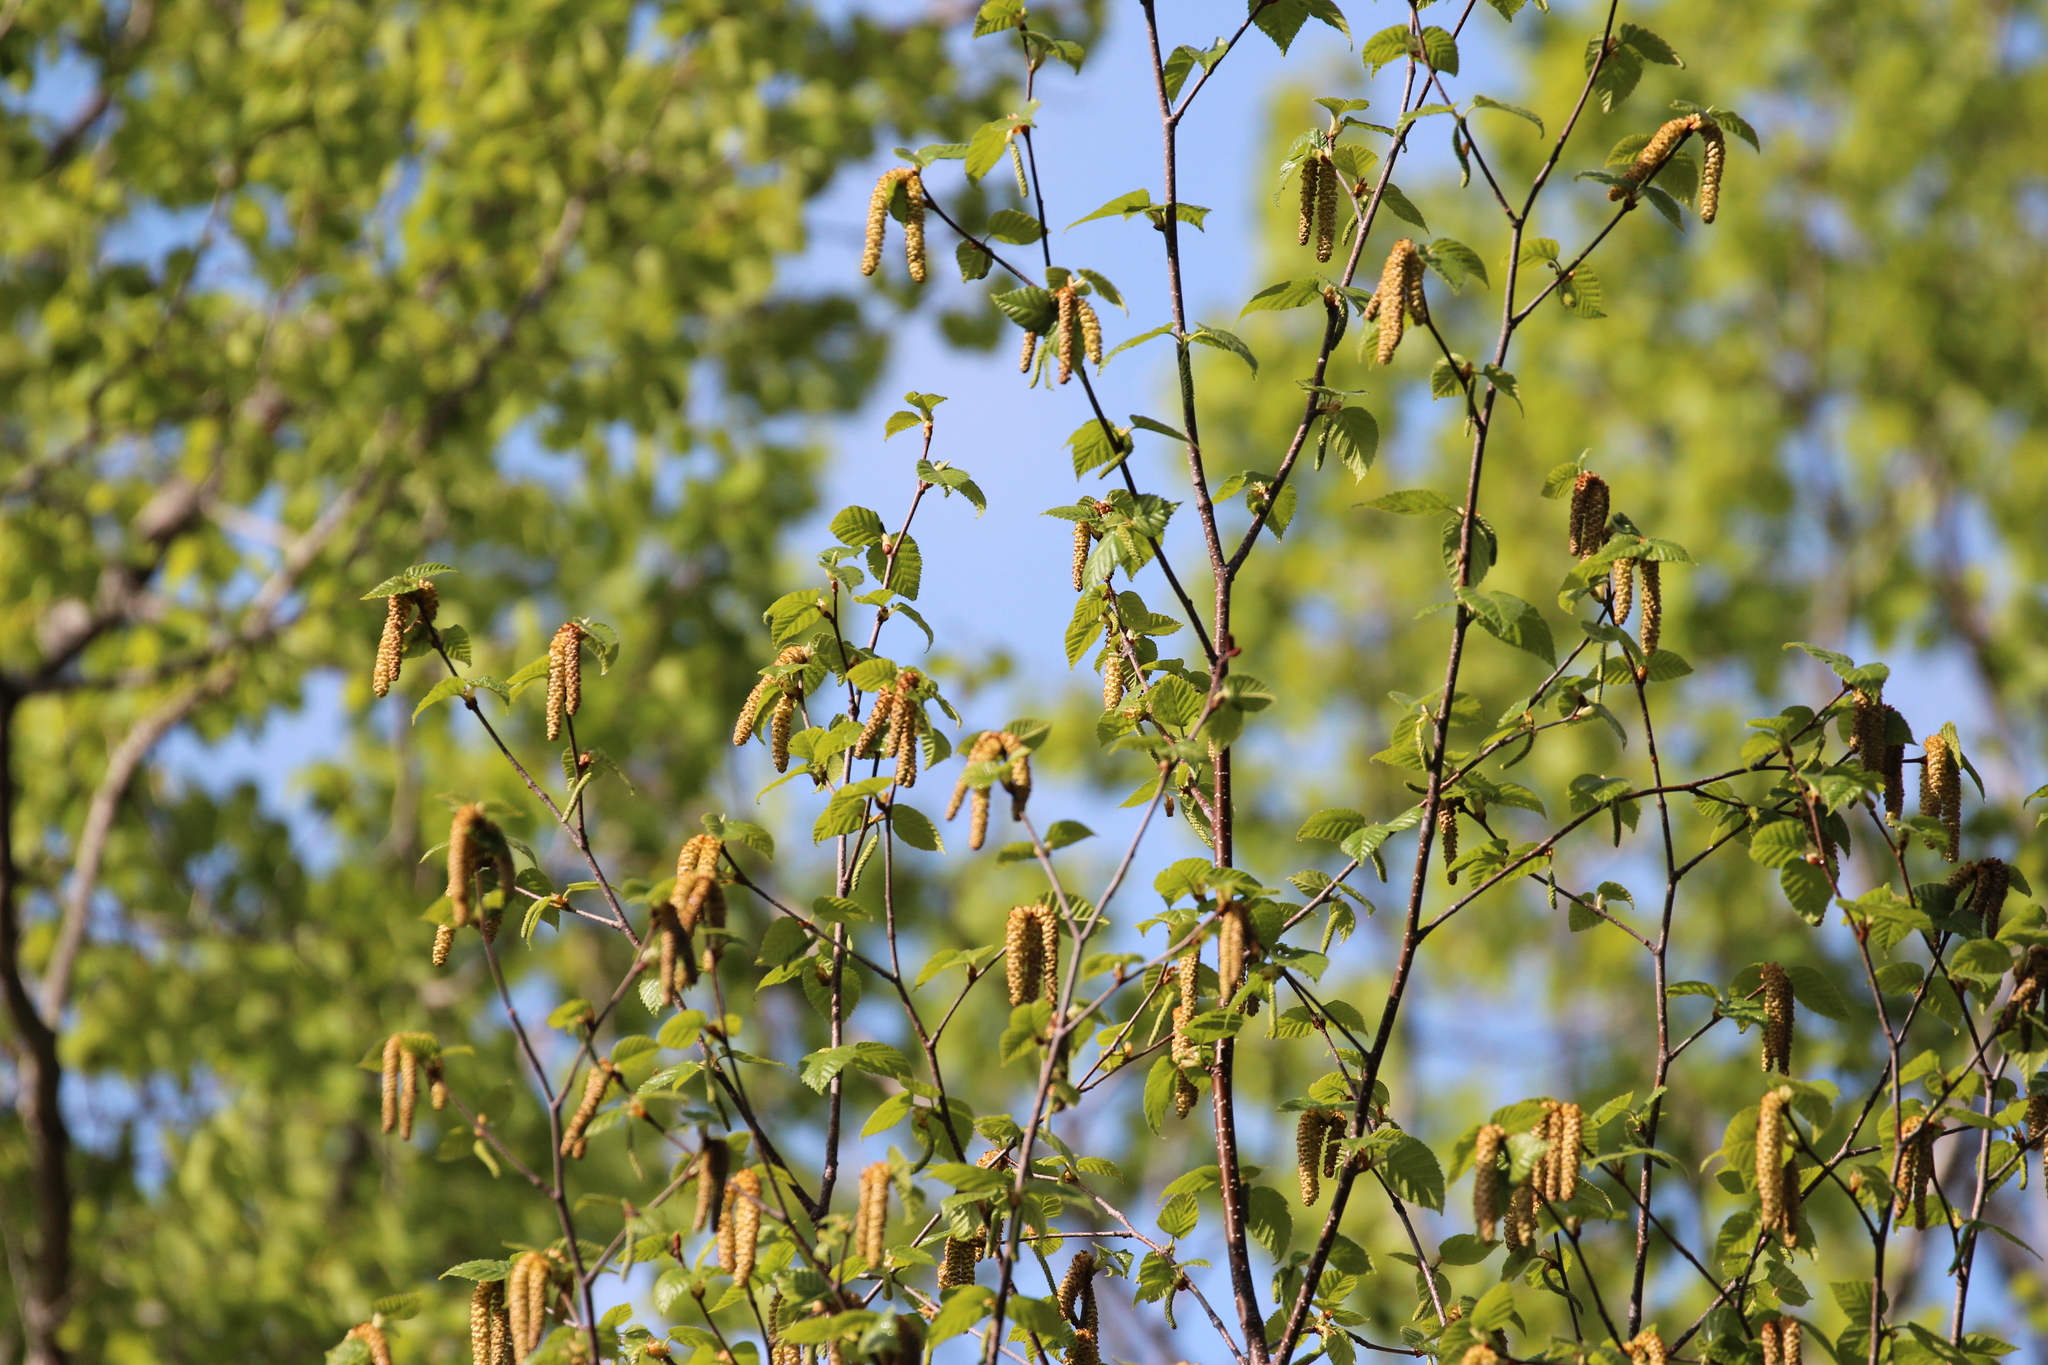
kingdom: Plantae
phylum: Tracheophyta
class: Magnoliopsida
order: Fagales
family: Betulaceae
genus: Betula
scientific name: Betula papyrifera
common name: Paper birch
